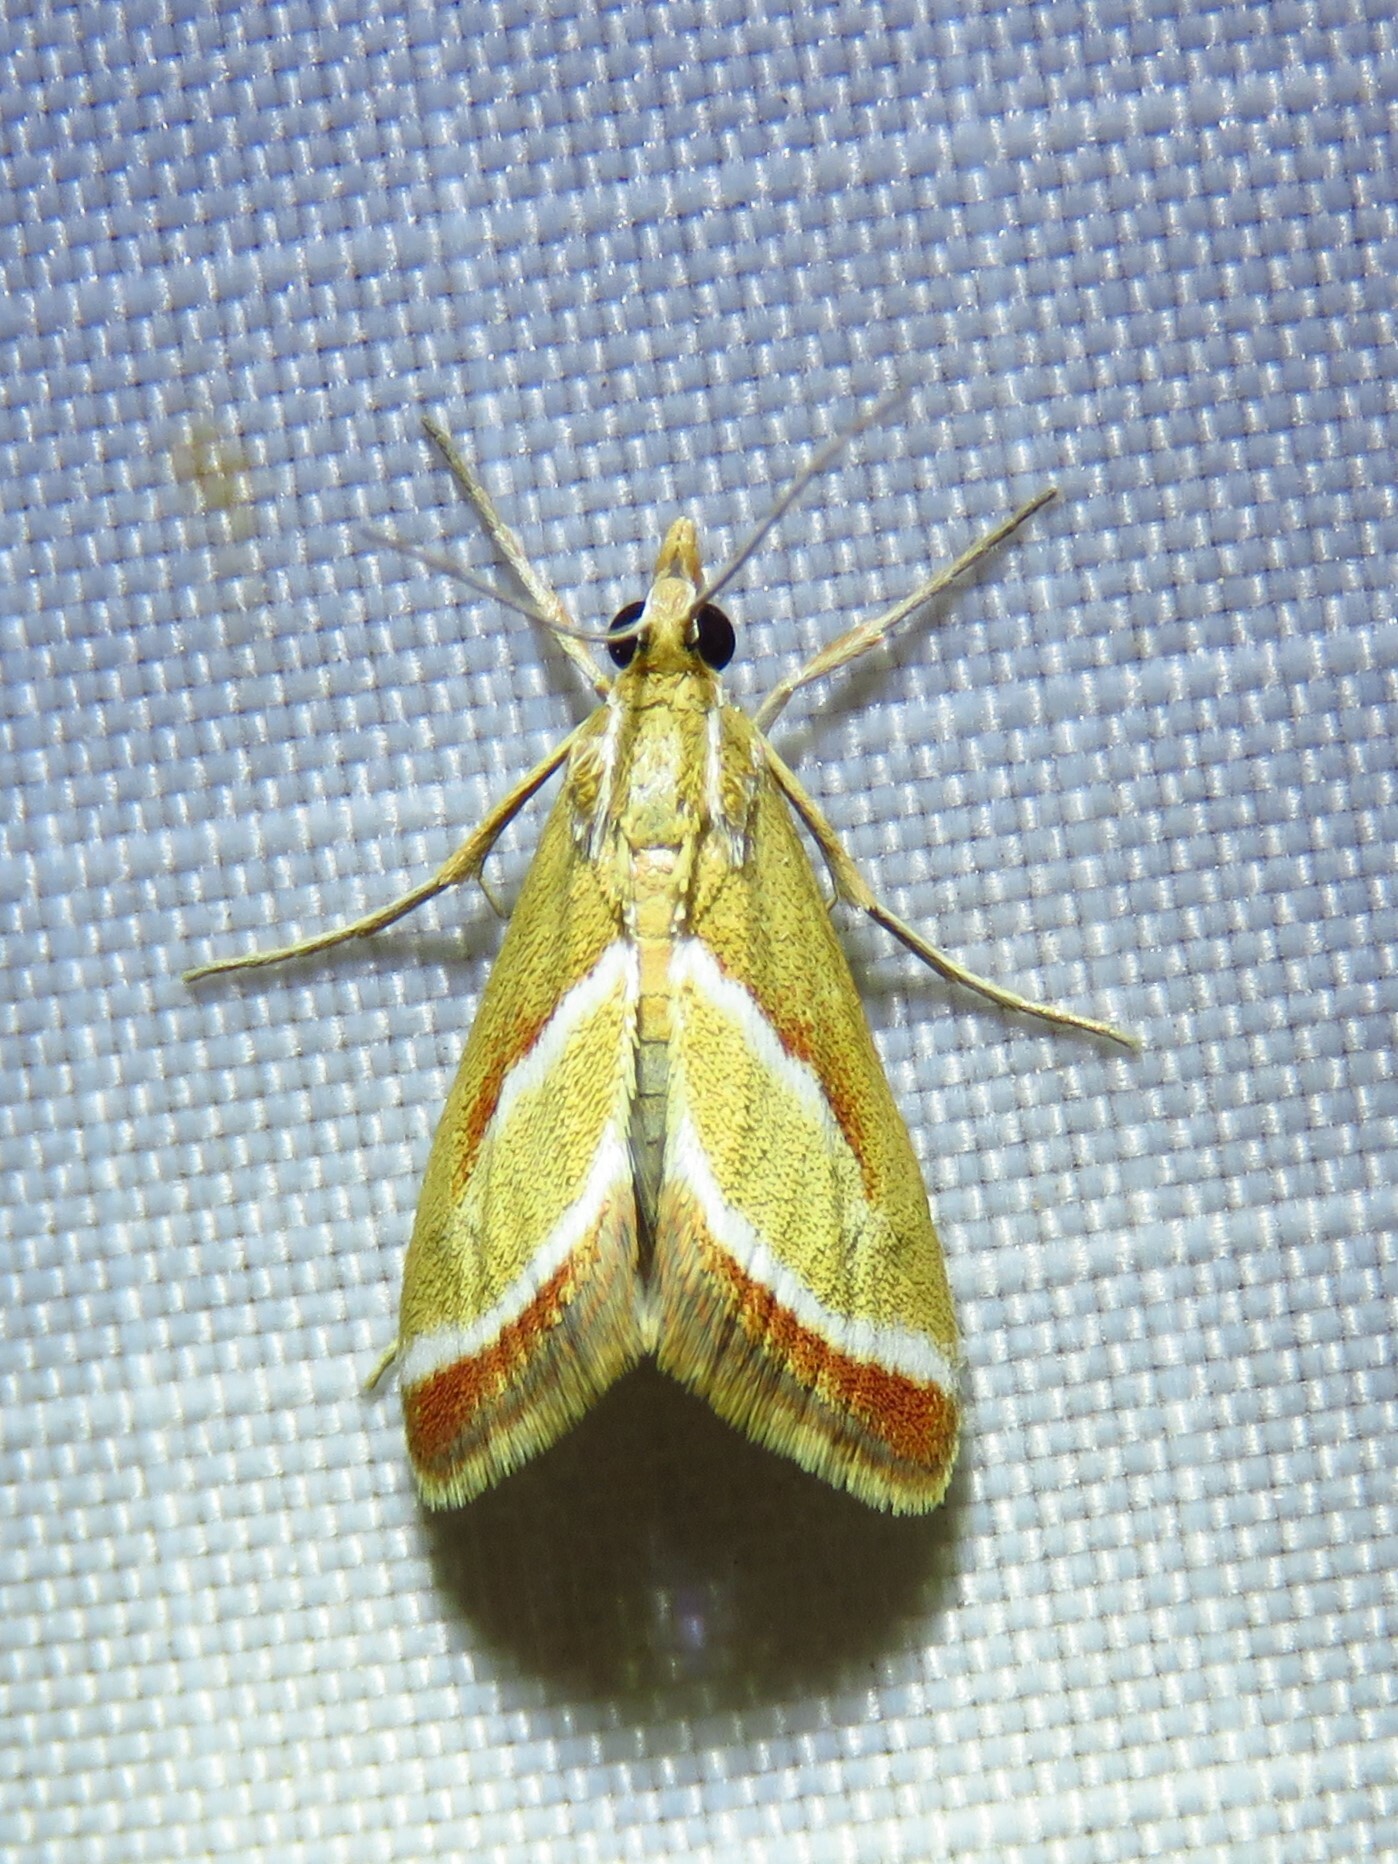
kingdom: Animalia
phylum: Arthropoda
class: Insecta
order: Lepidoptera
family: Crambidae
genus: Rhodocantha
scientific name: Rhodocantha diagonalis
